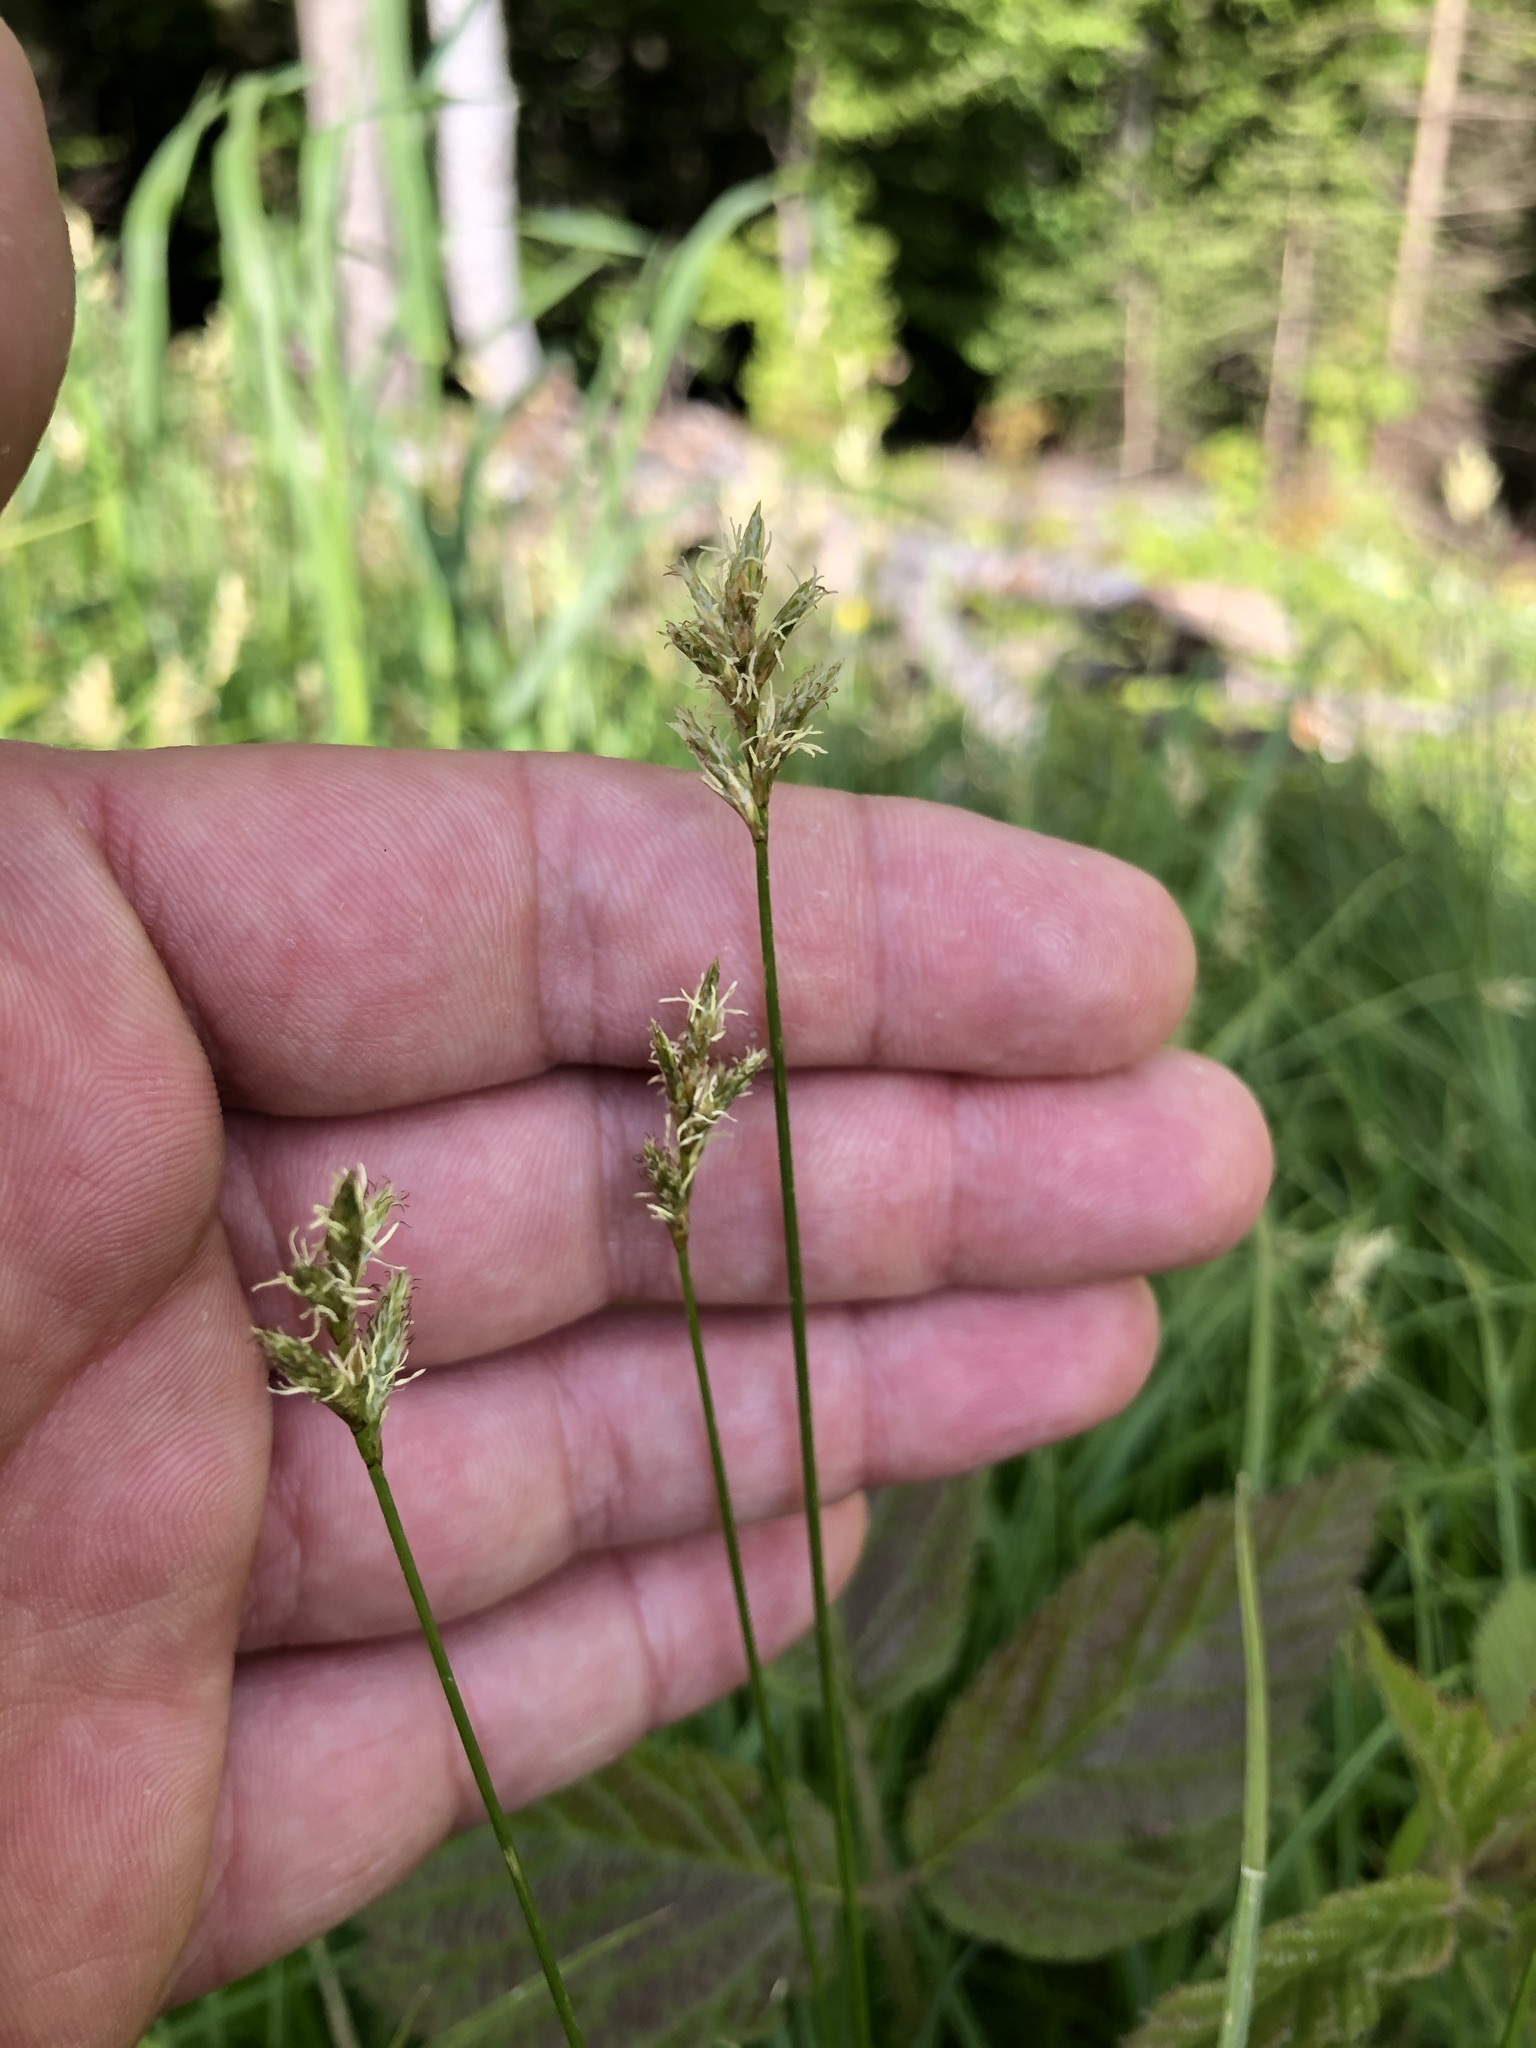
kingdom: Plantae
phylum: Tracheophyta
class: Liliopsida
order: Poales
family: Cyperaceae
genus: Carex
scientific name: Carex brizoides
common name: Quaking-grass sedge
